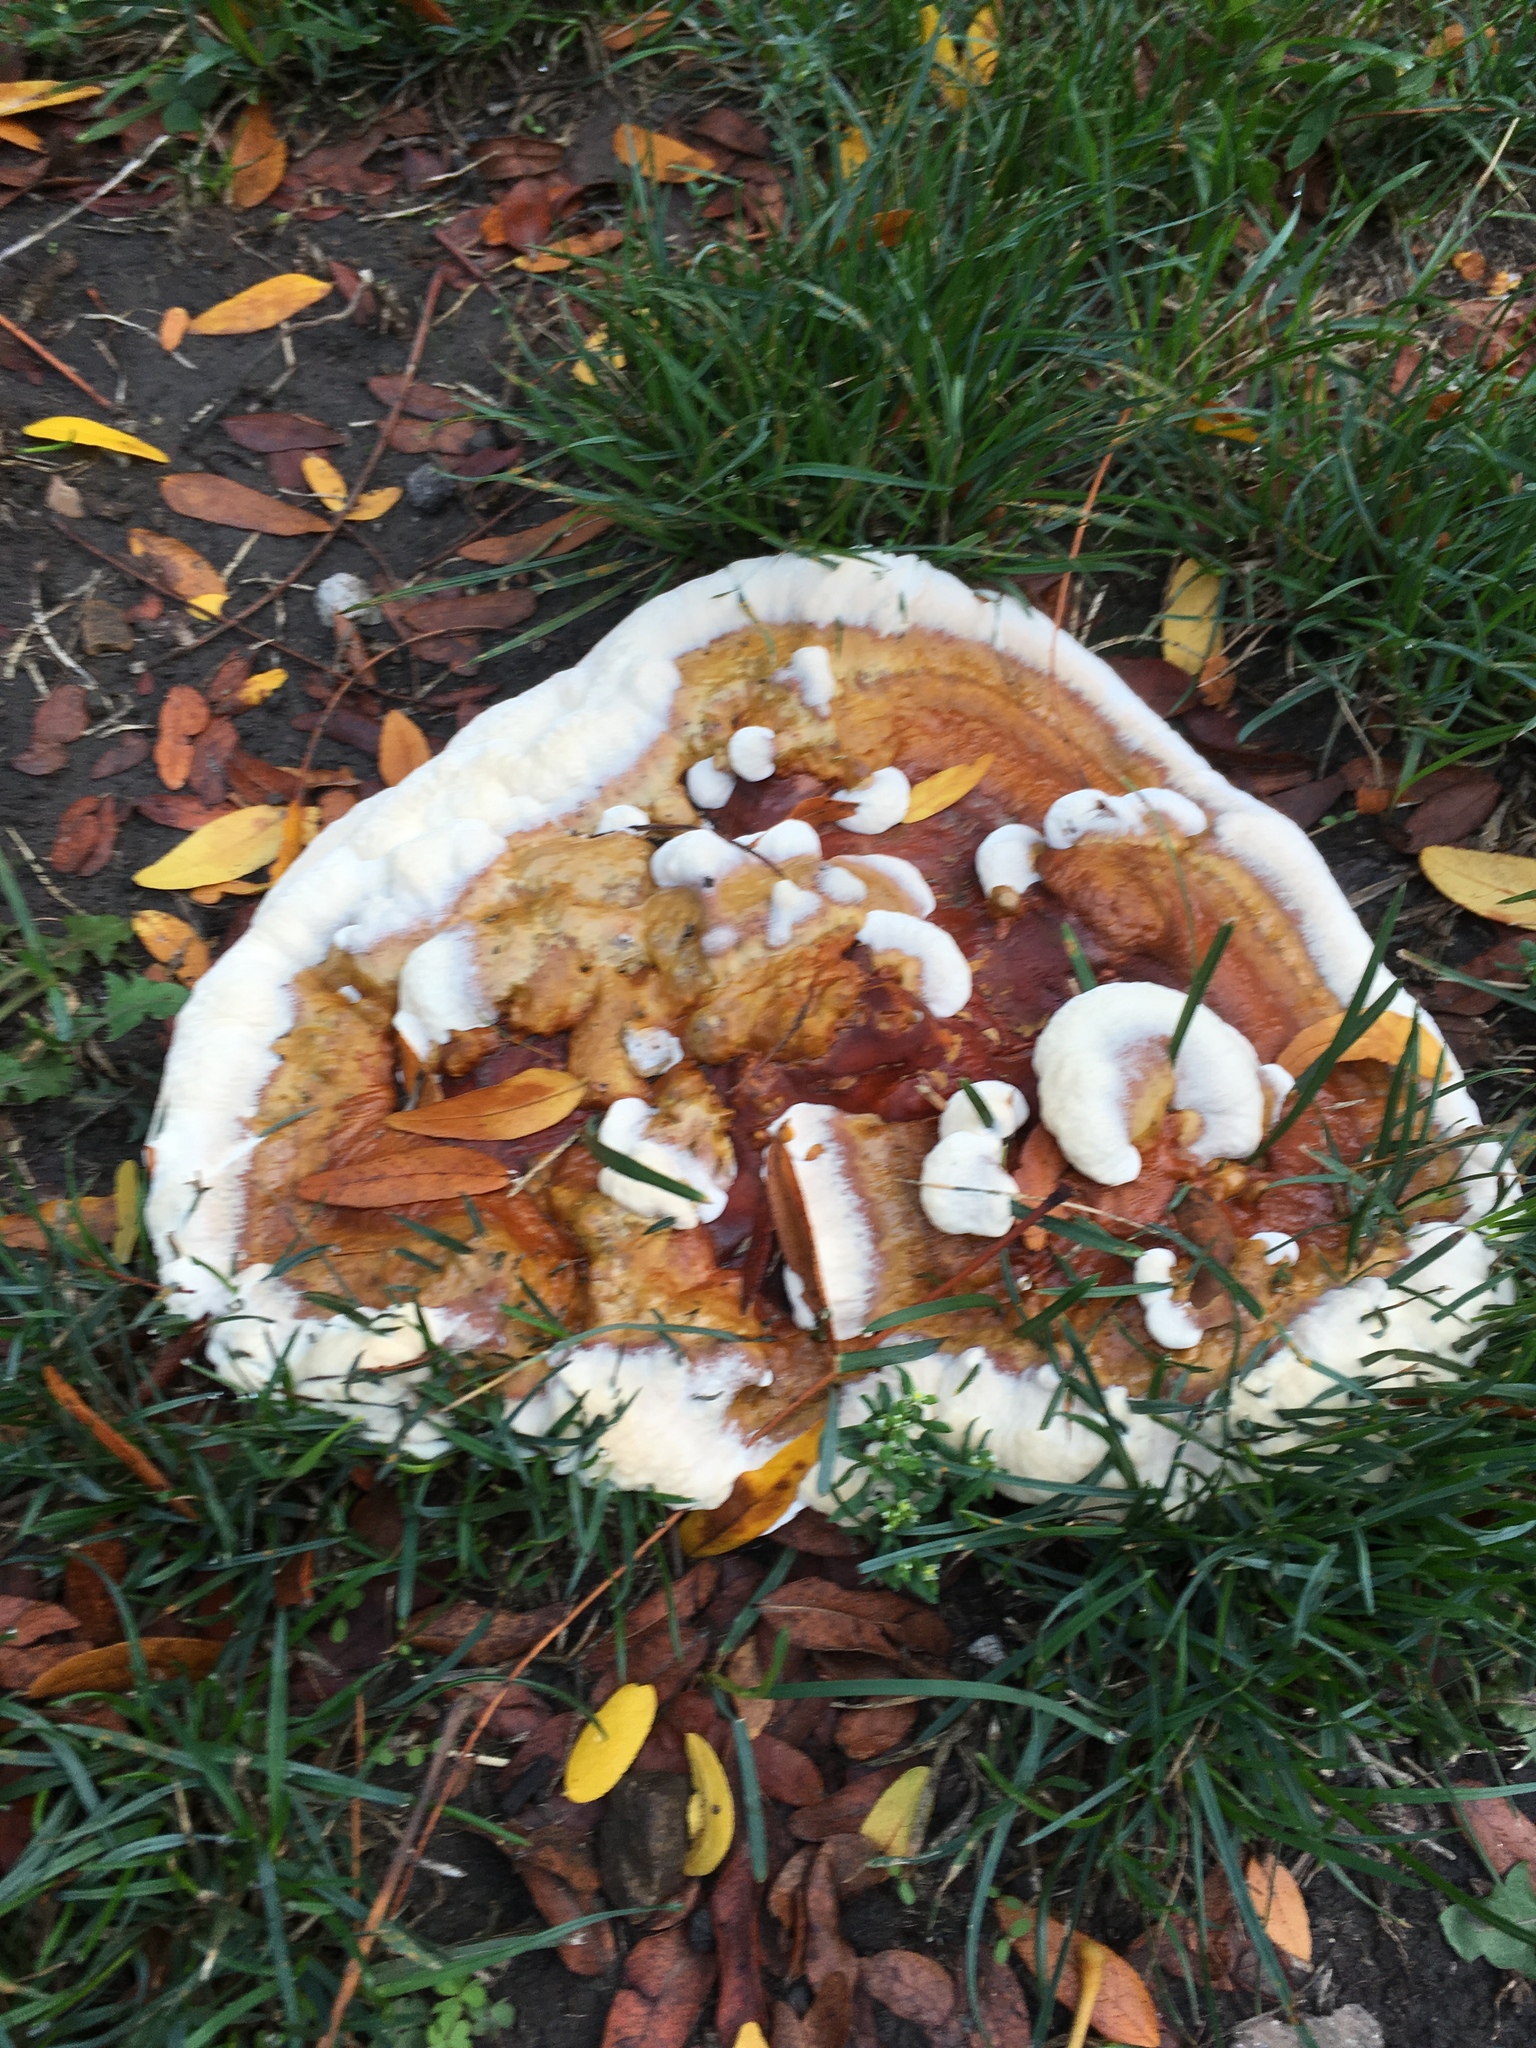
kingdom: Fungi
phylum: Basidiomycota
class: Agaricomycetes
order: Polyporales
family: Polyporaceae
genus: Ganoderma
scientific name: Ganoderma resinaceum
